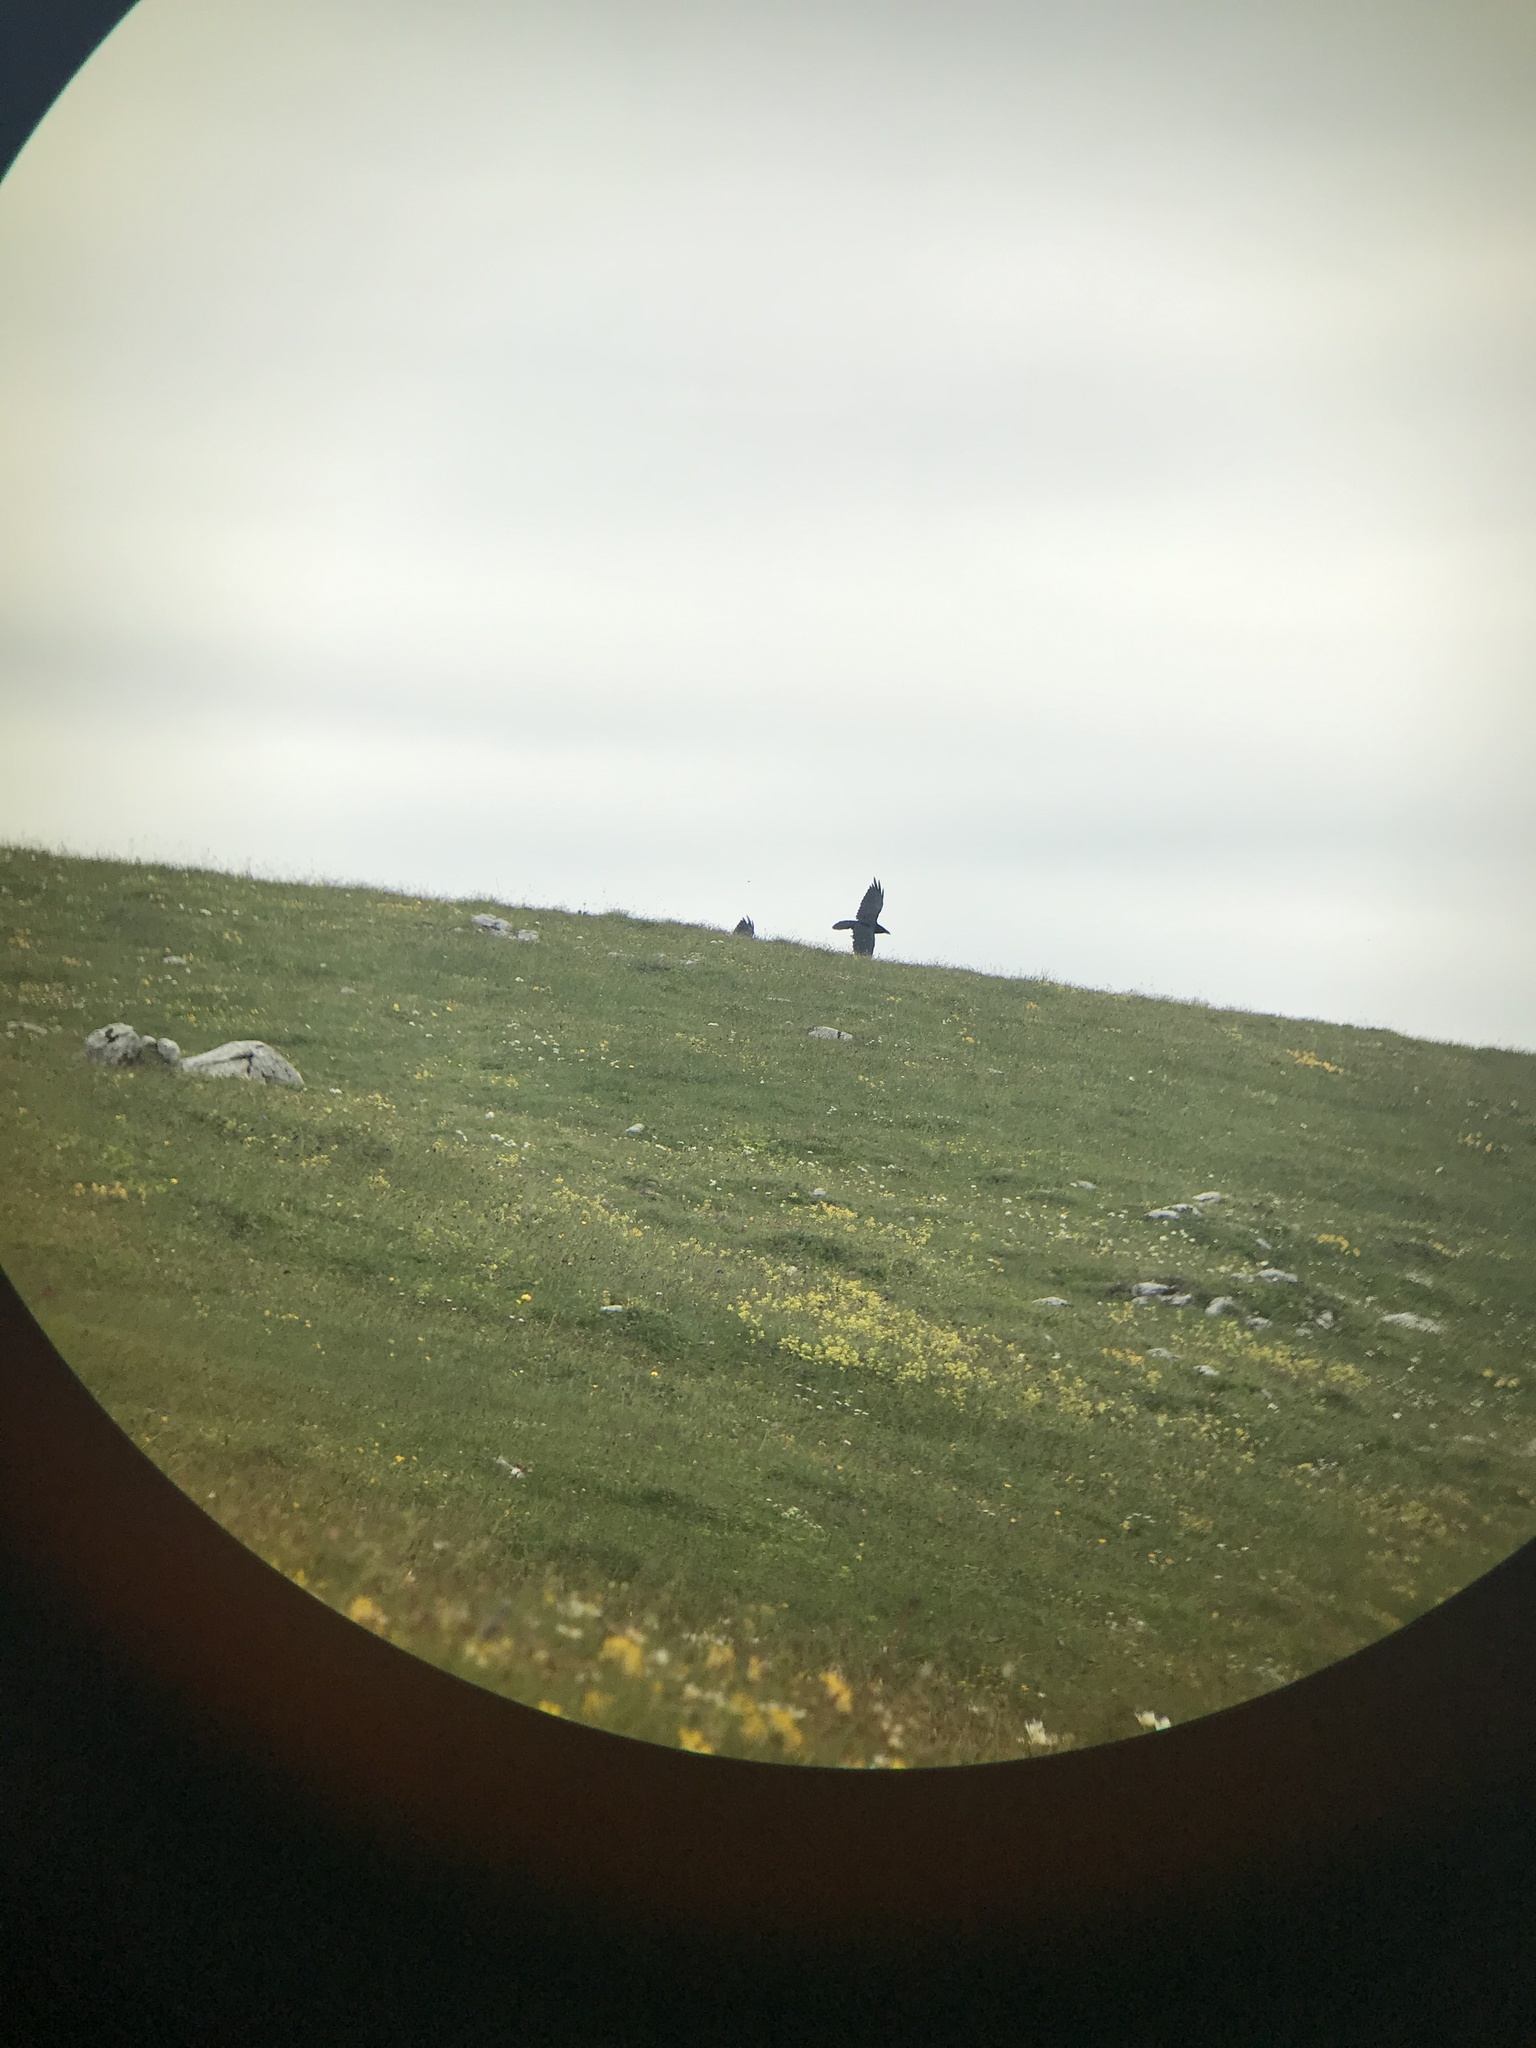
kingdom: Animalia
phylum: Chordata
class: Aves
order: Passeriformes
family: Corvidae
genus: Corvus
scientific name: Corvus corax
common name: Common raven
